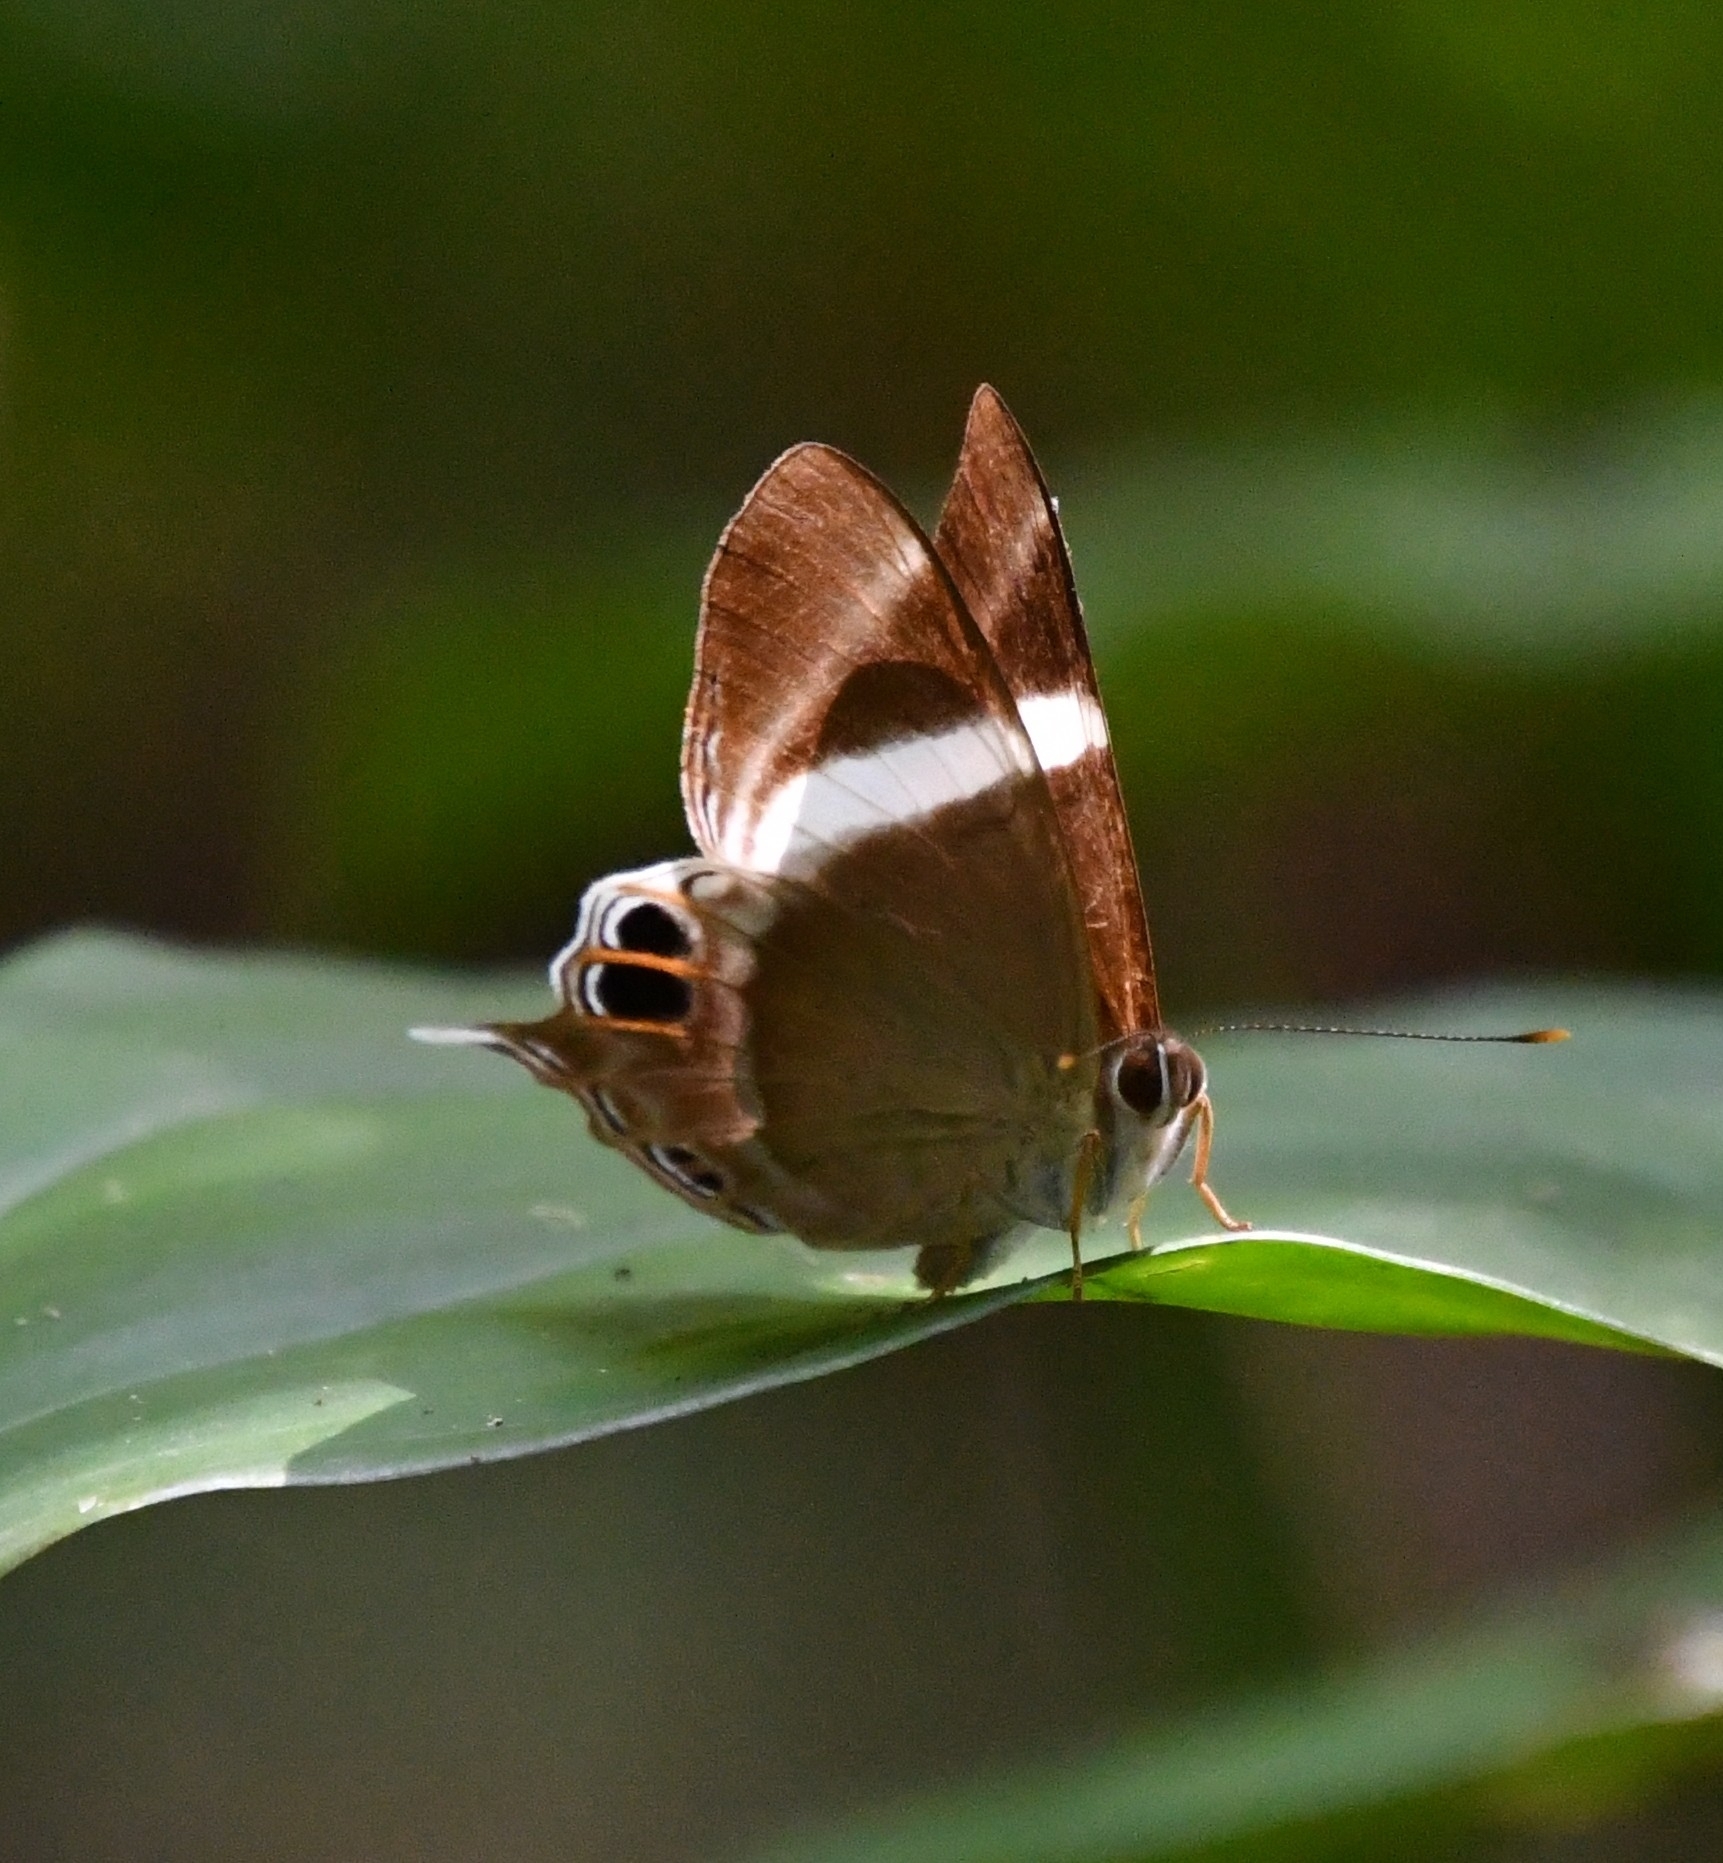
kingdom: Animalia
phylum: Arthropoda
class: Insecta
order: Lepidoptera
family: Lycaenidae
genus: Abisara
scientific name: Abisara neophron
